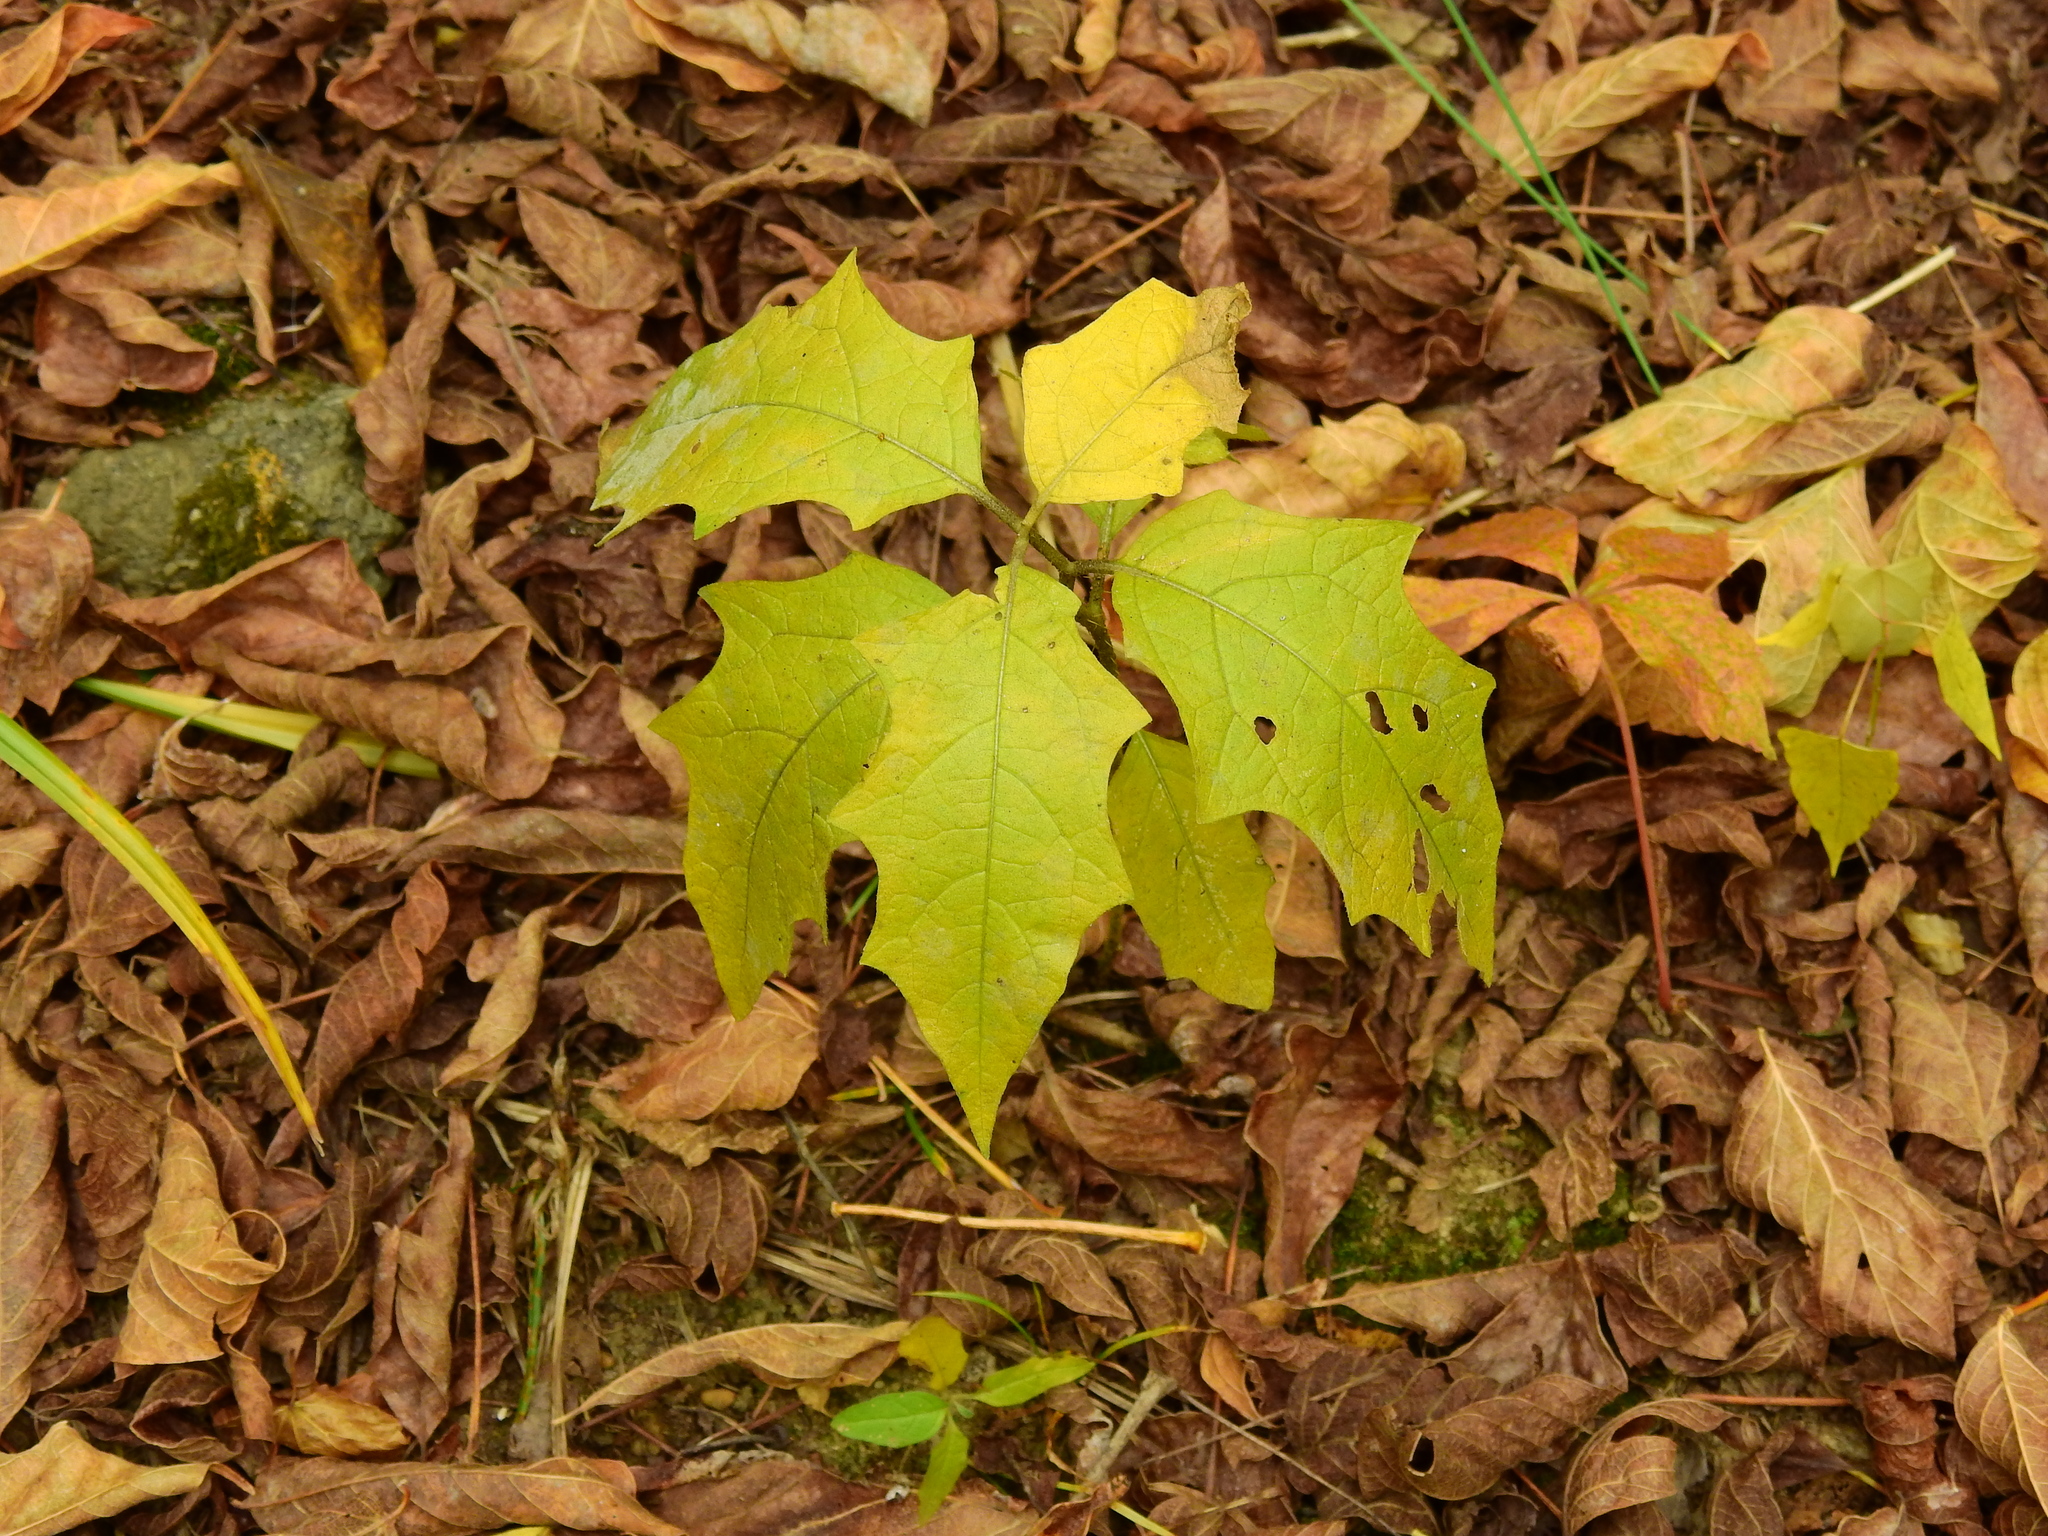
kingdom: Plantae
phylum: Tracheophyta
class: Magnoliopsida
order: Solanales
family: Solanaceae
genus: Solanum
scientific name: Solanum carolinense
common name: Horse-nettle
